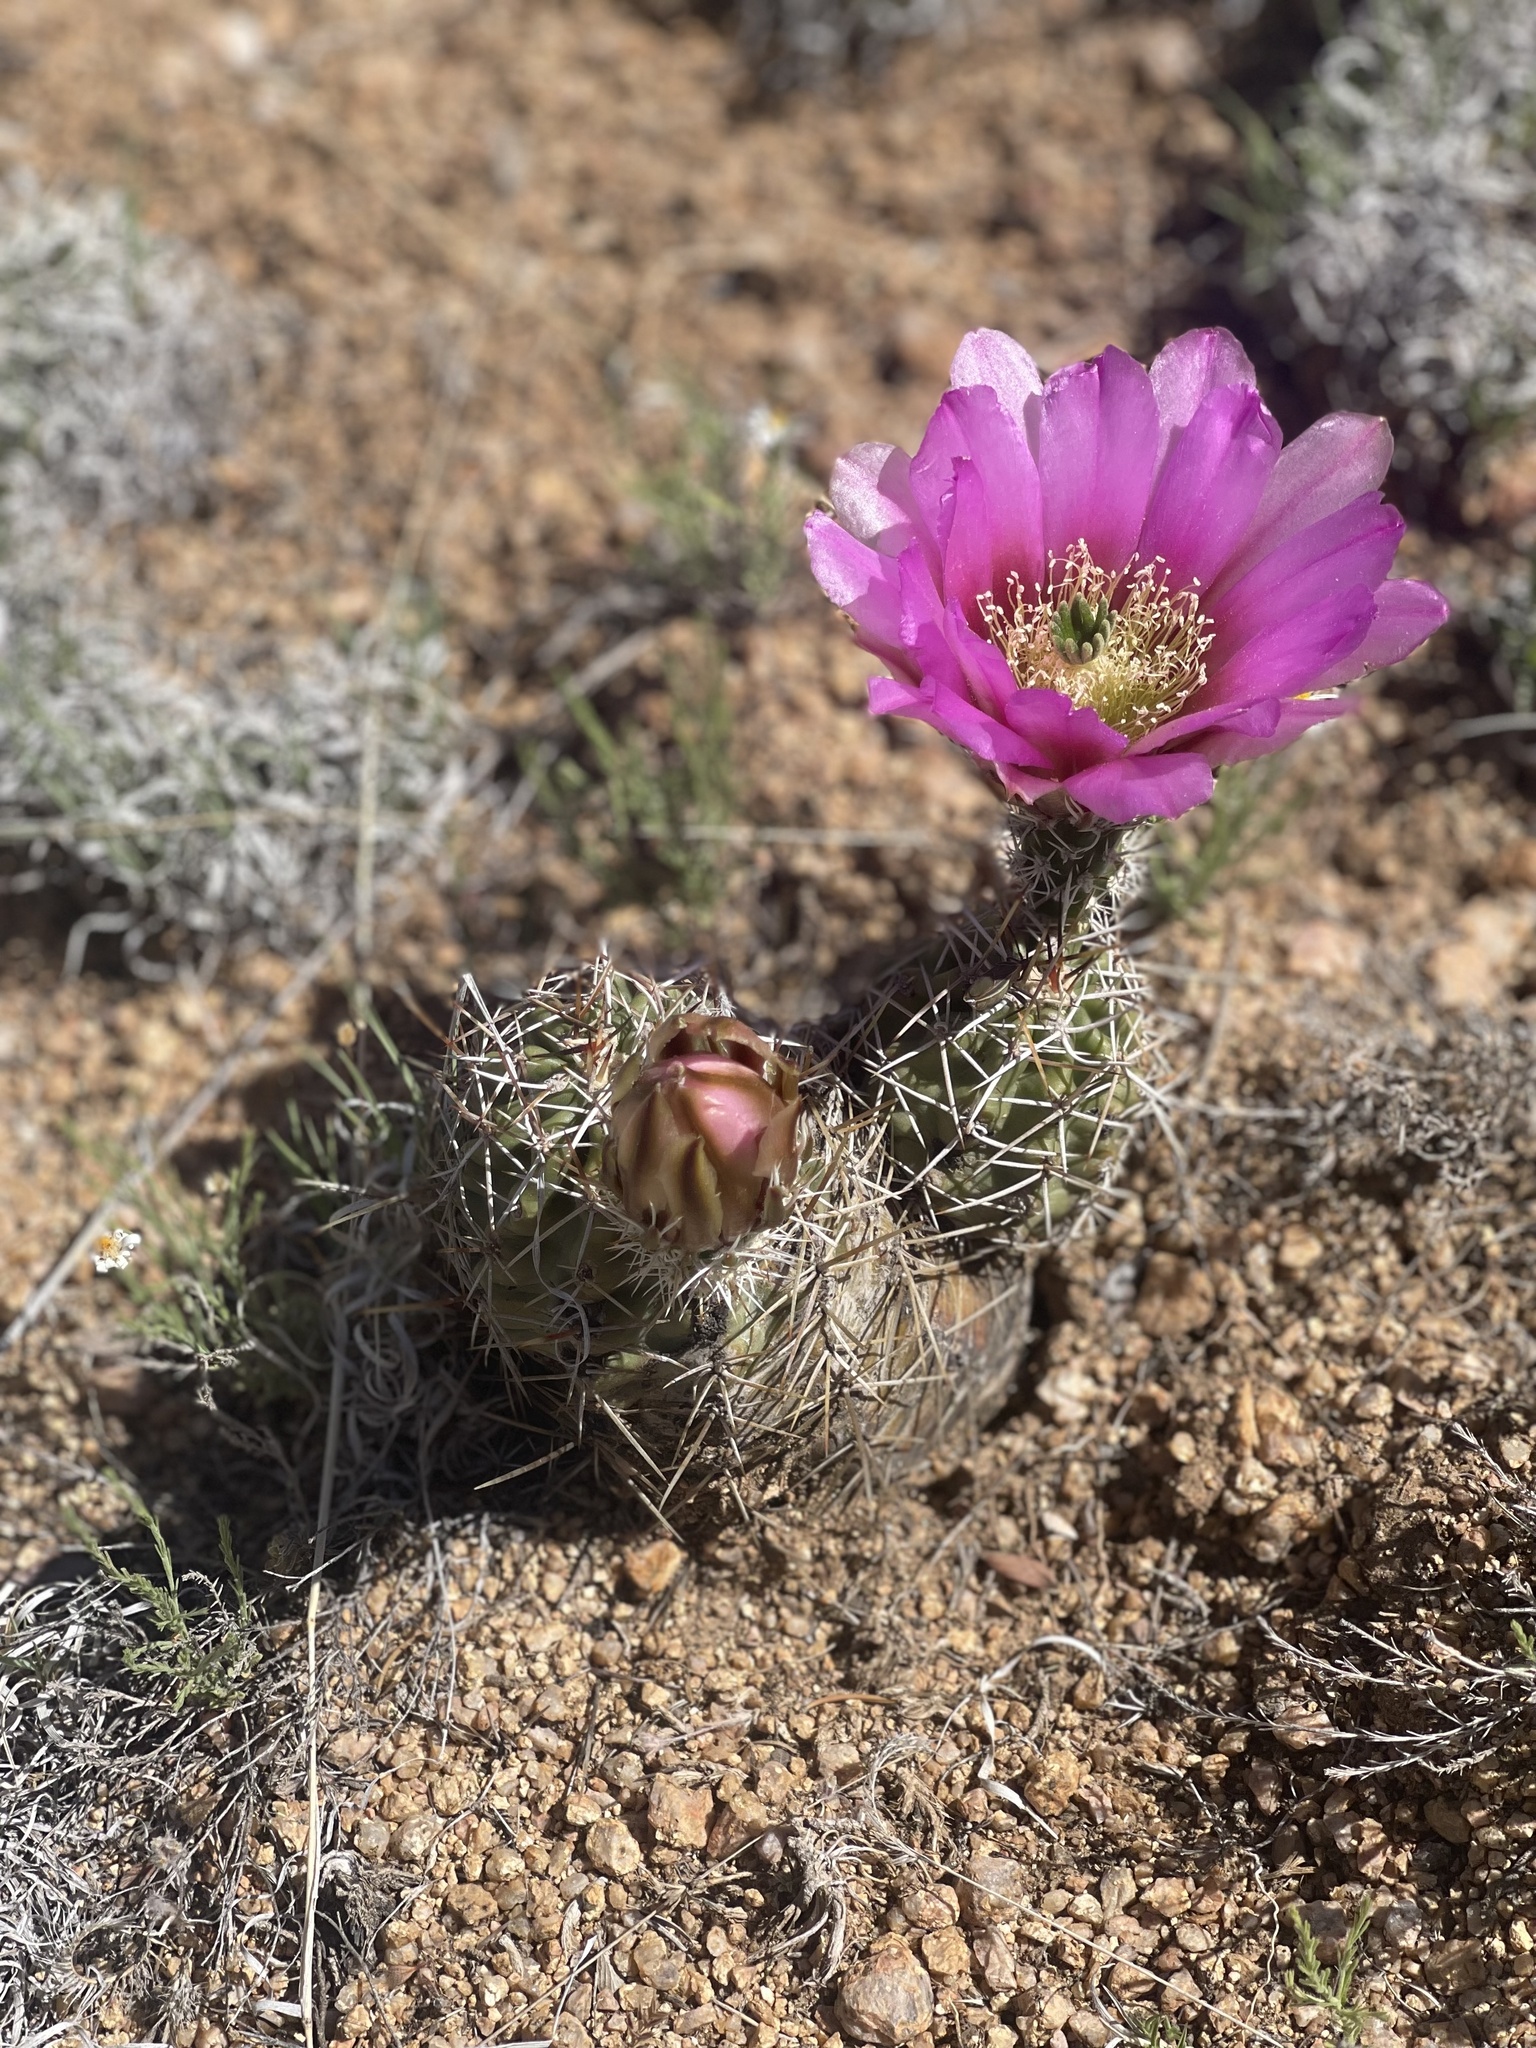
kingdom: Plantae
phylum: Tracheophyta
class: Magnoliopsida
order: Caryophyllales
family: Cactaceae
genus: Echinocereus
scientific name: Echinocereus fendleri
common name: Fendler's hedgehog cactus
